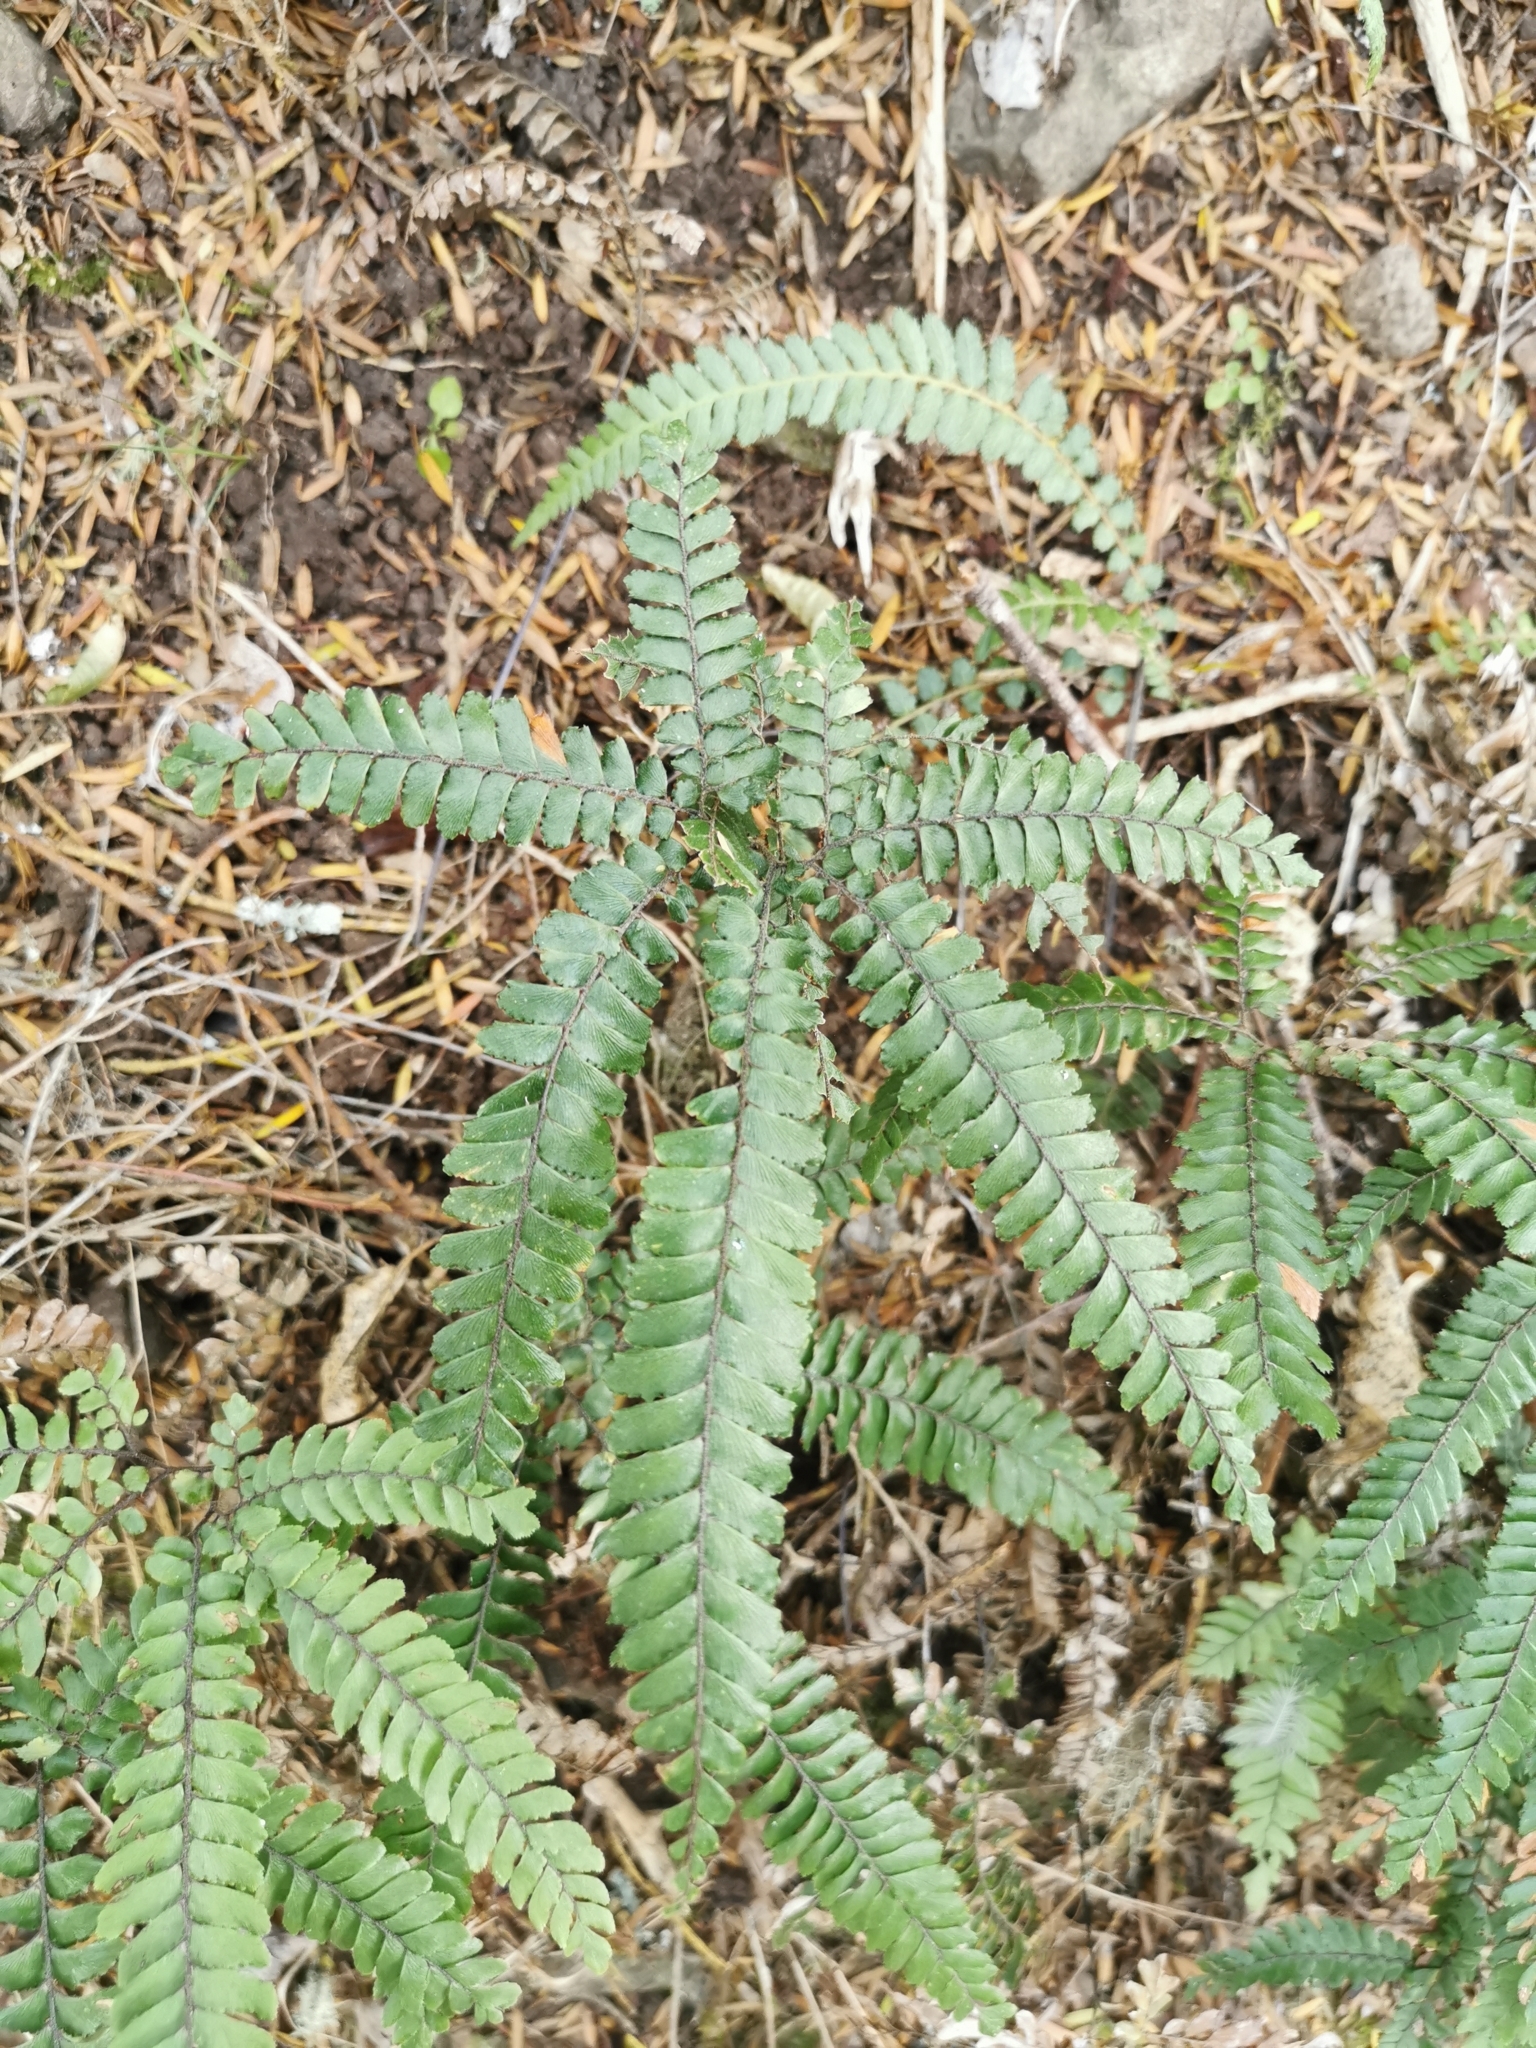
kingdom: Plantae
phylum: Tracheophyta
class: Polypodiopsida
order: Polypodiales
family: Pteridaceae
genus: Adiantum
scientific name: Adiantum hispidulum
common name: Rough maidenhair
